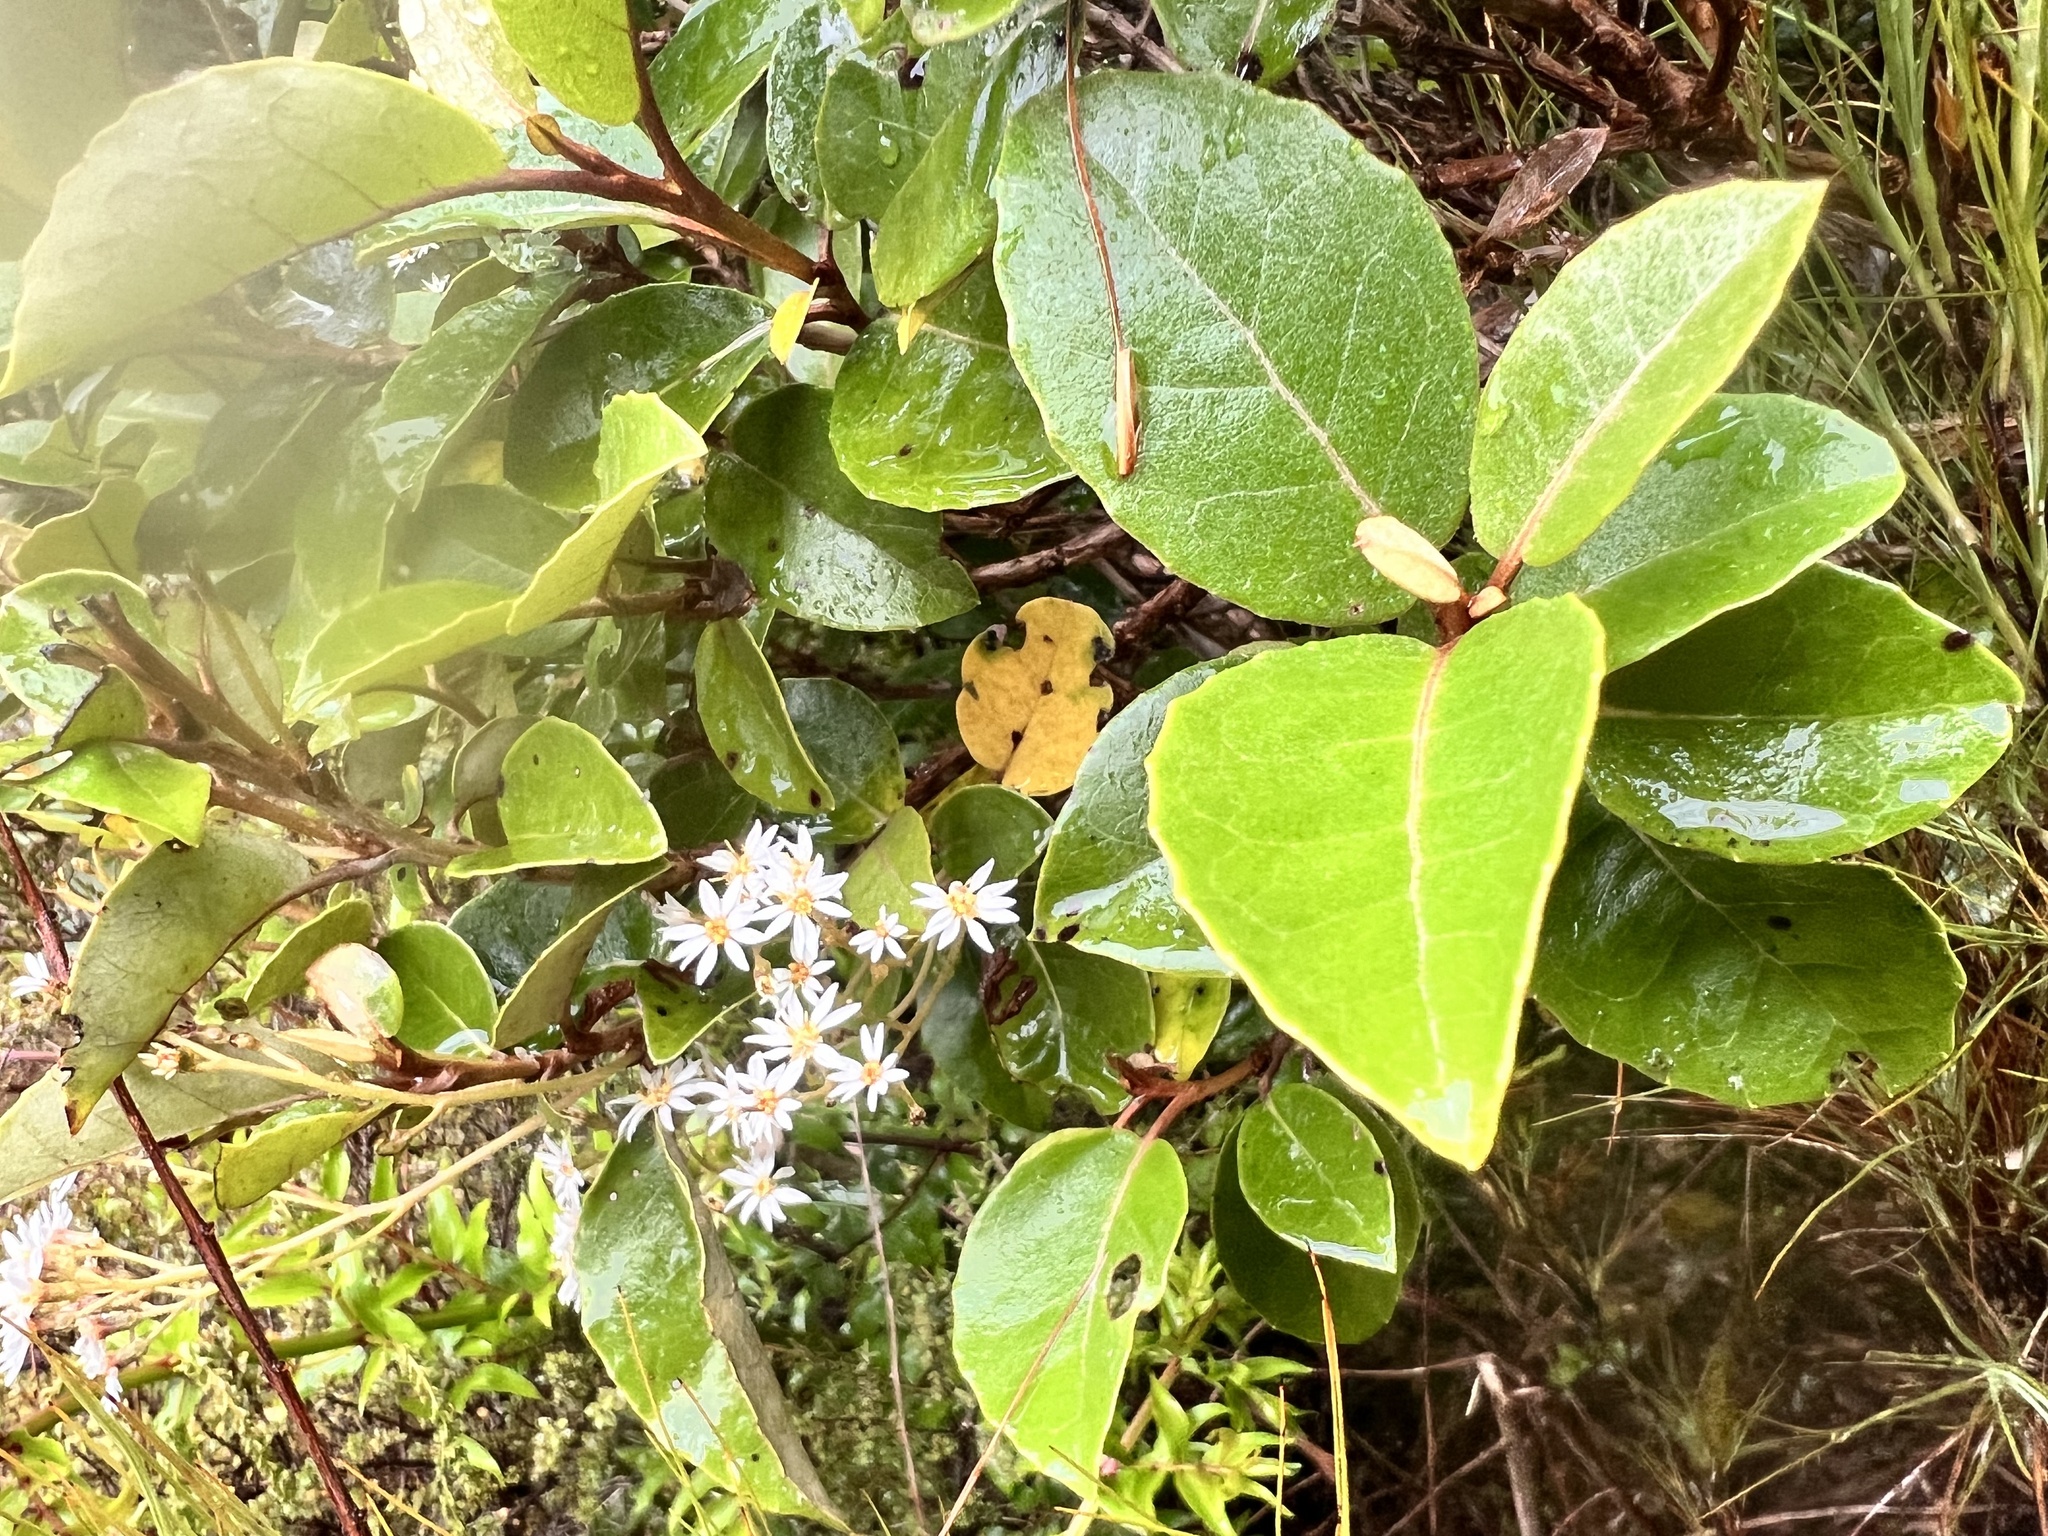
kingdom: Plantae
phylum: Tracheophyta
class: Magnoliopsida
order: Asterales
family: Asteraceae
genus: Olearia
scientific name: Olearia arborescens
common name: Glossy tree daisy
